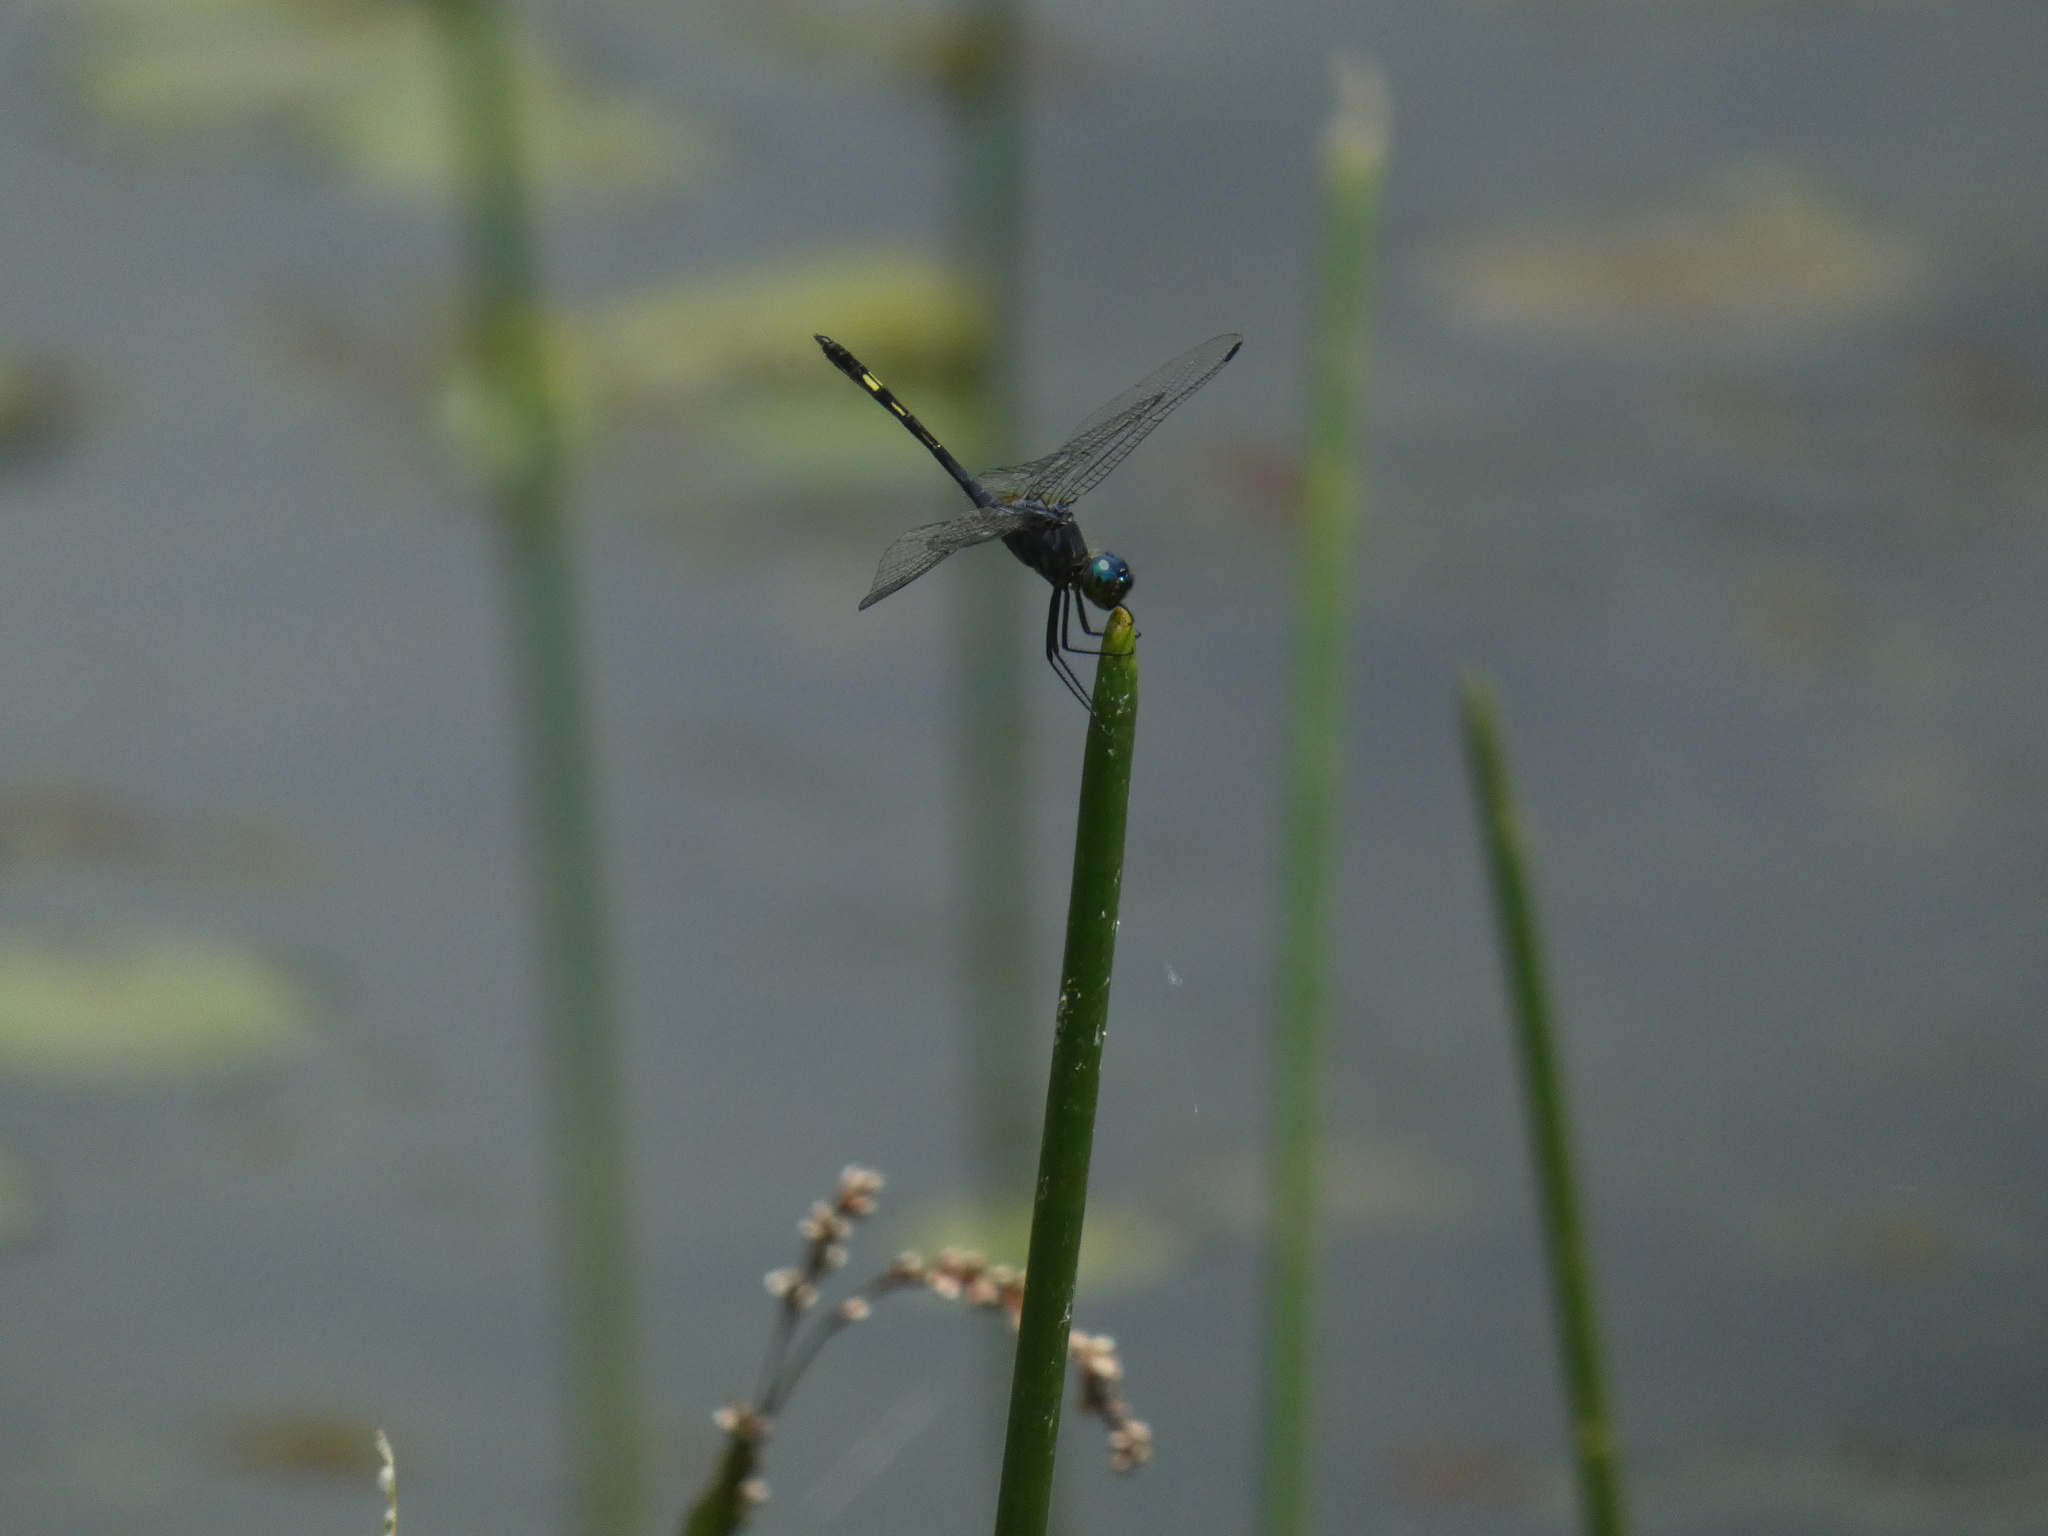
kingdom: Animalia
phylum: Arthropoda
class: Insecta
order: Odonata
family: Libellulidae
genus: Micrathyria
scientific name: Micrathyria artemis
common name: Artemis dasher
